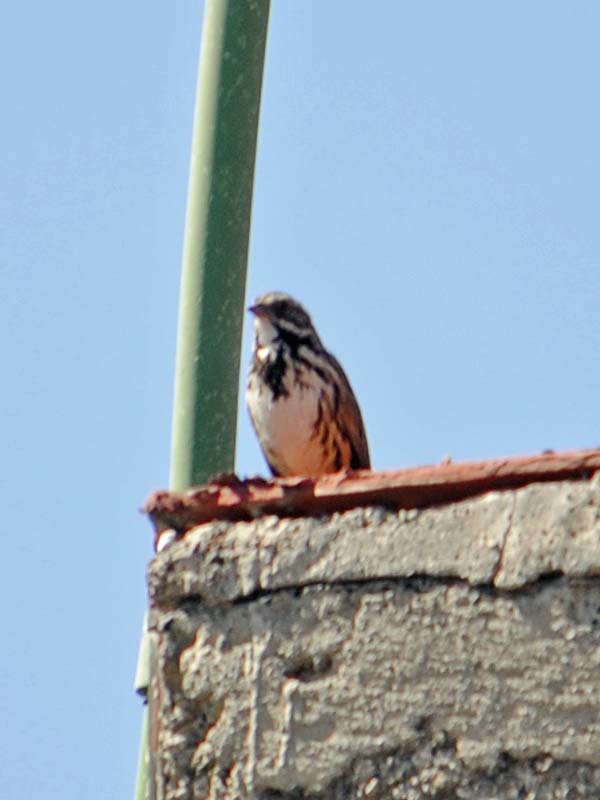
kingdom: Animalia
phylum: Chordata
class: Aves
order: Passeriformes
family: Passerellidae
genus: Melospiza
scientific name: Melospiza melodia
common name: Song sparrow
